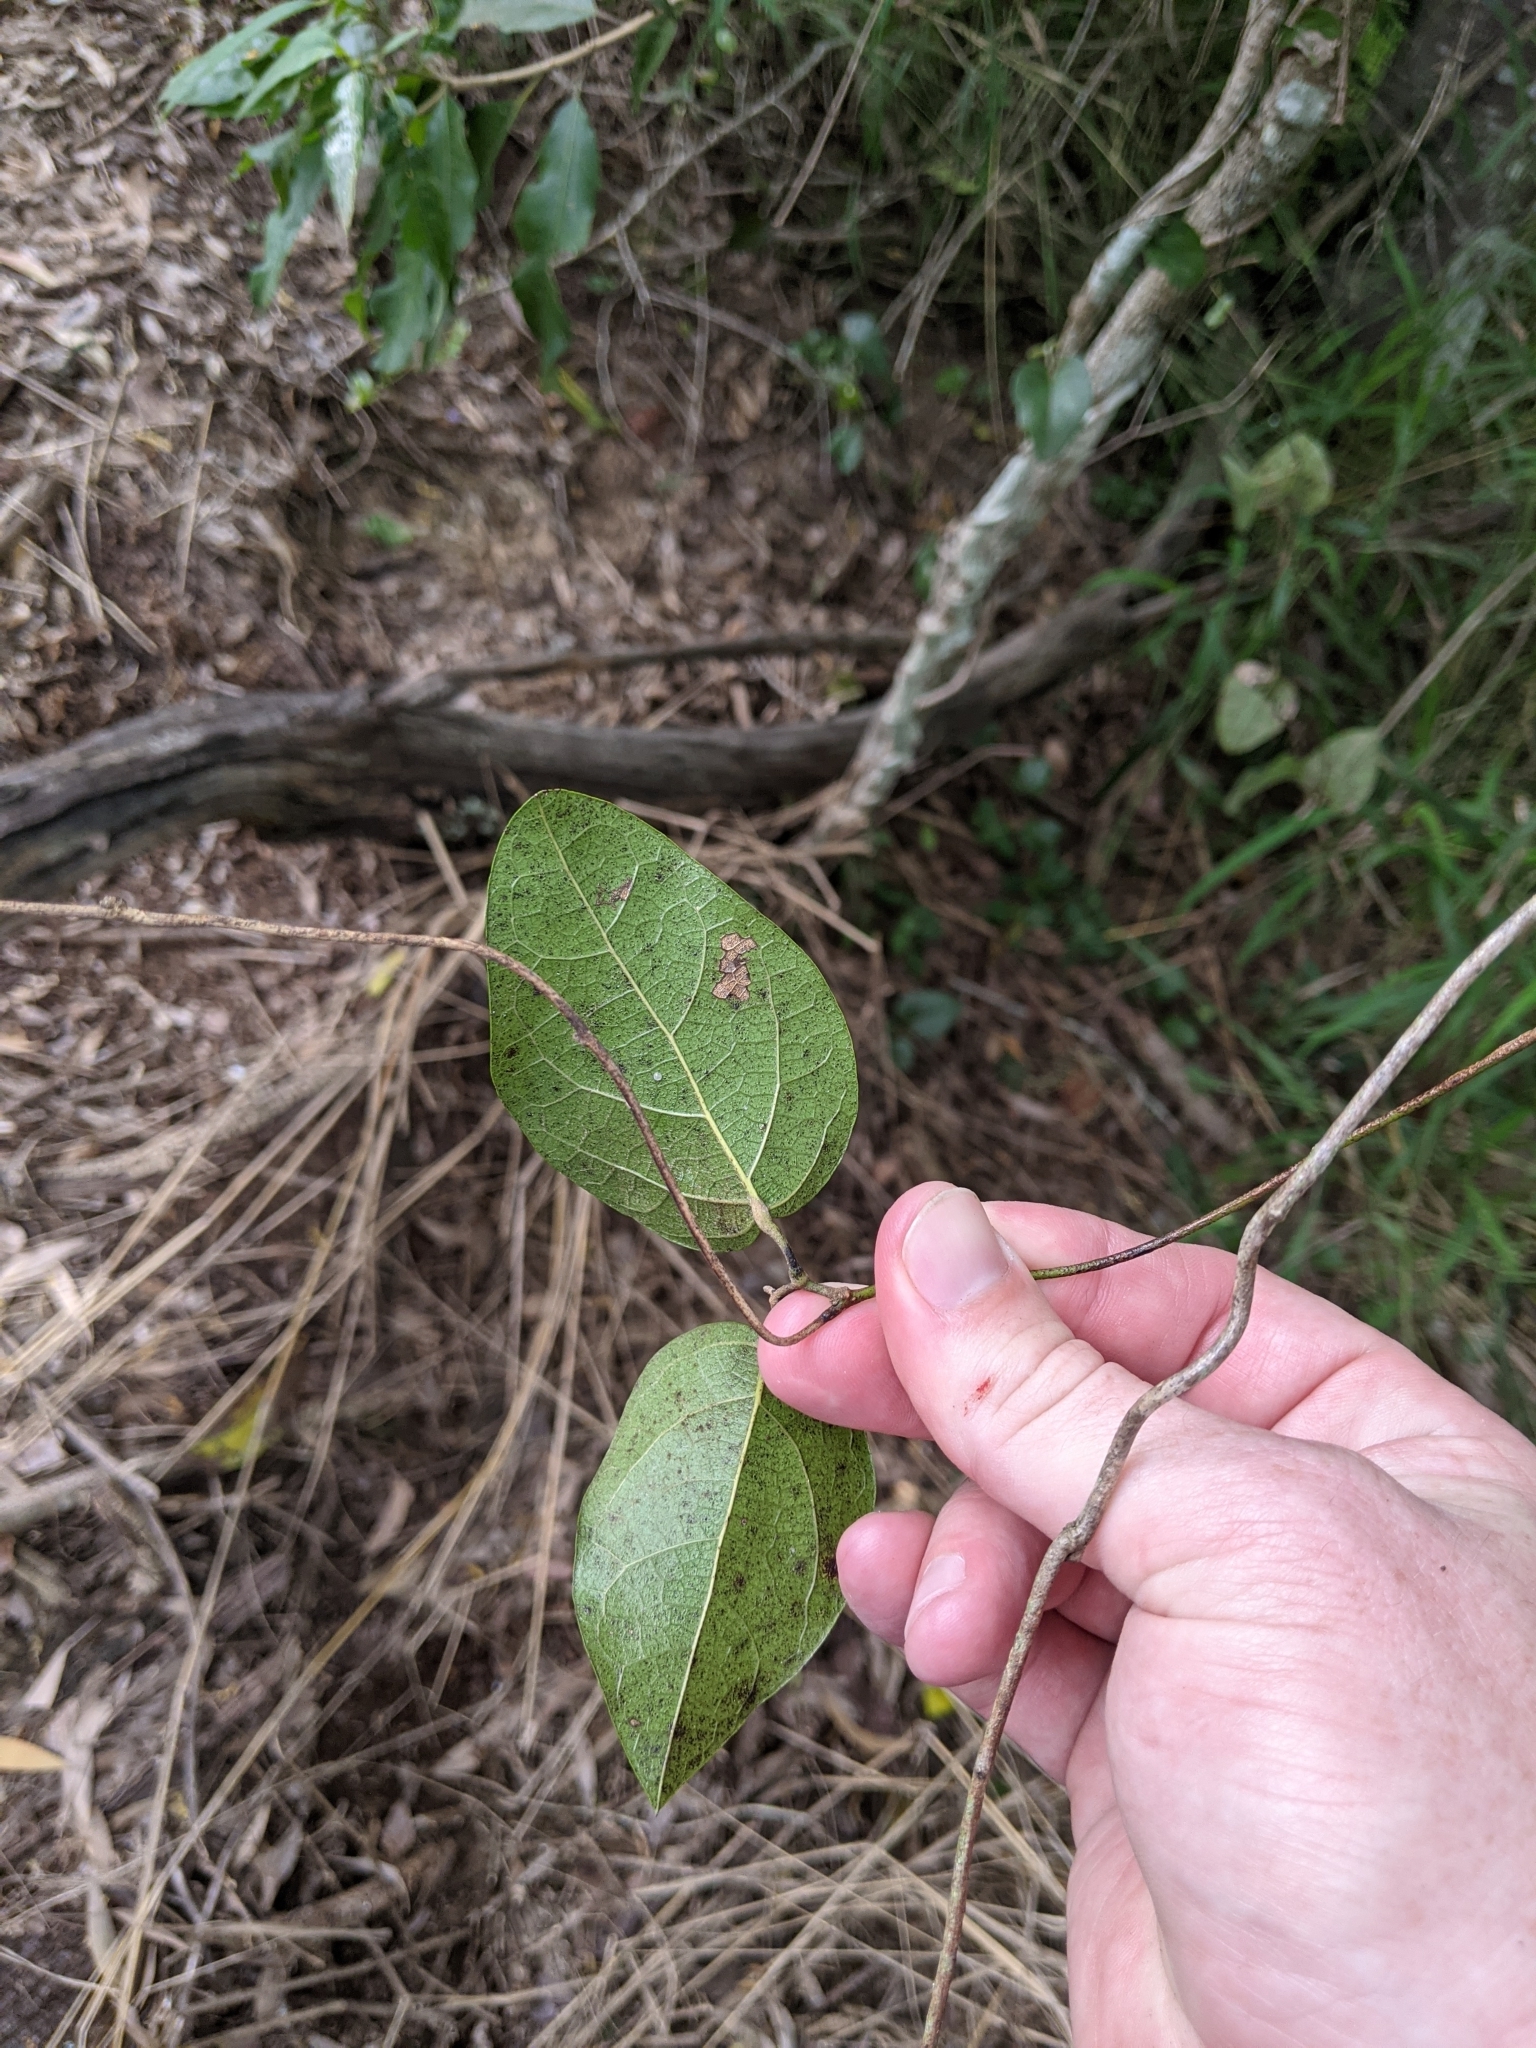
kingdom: Plantae
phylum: Tracheophyta
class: Magnoliopsida
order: Ranunculales
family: Menispermaceae
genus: Pleogyne
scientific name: Pleogyne australis
